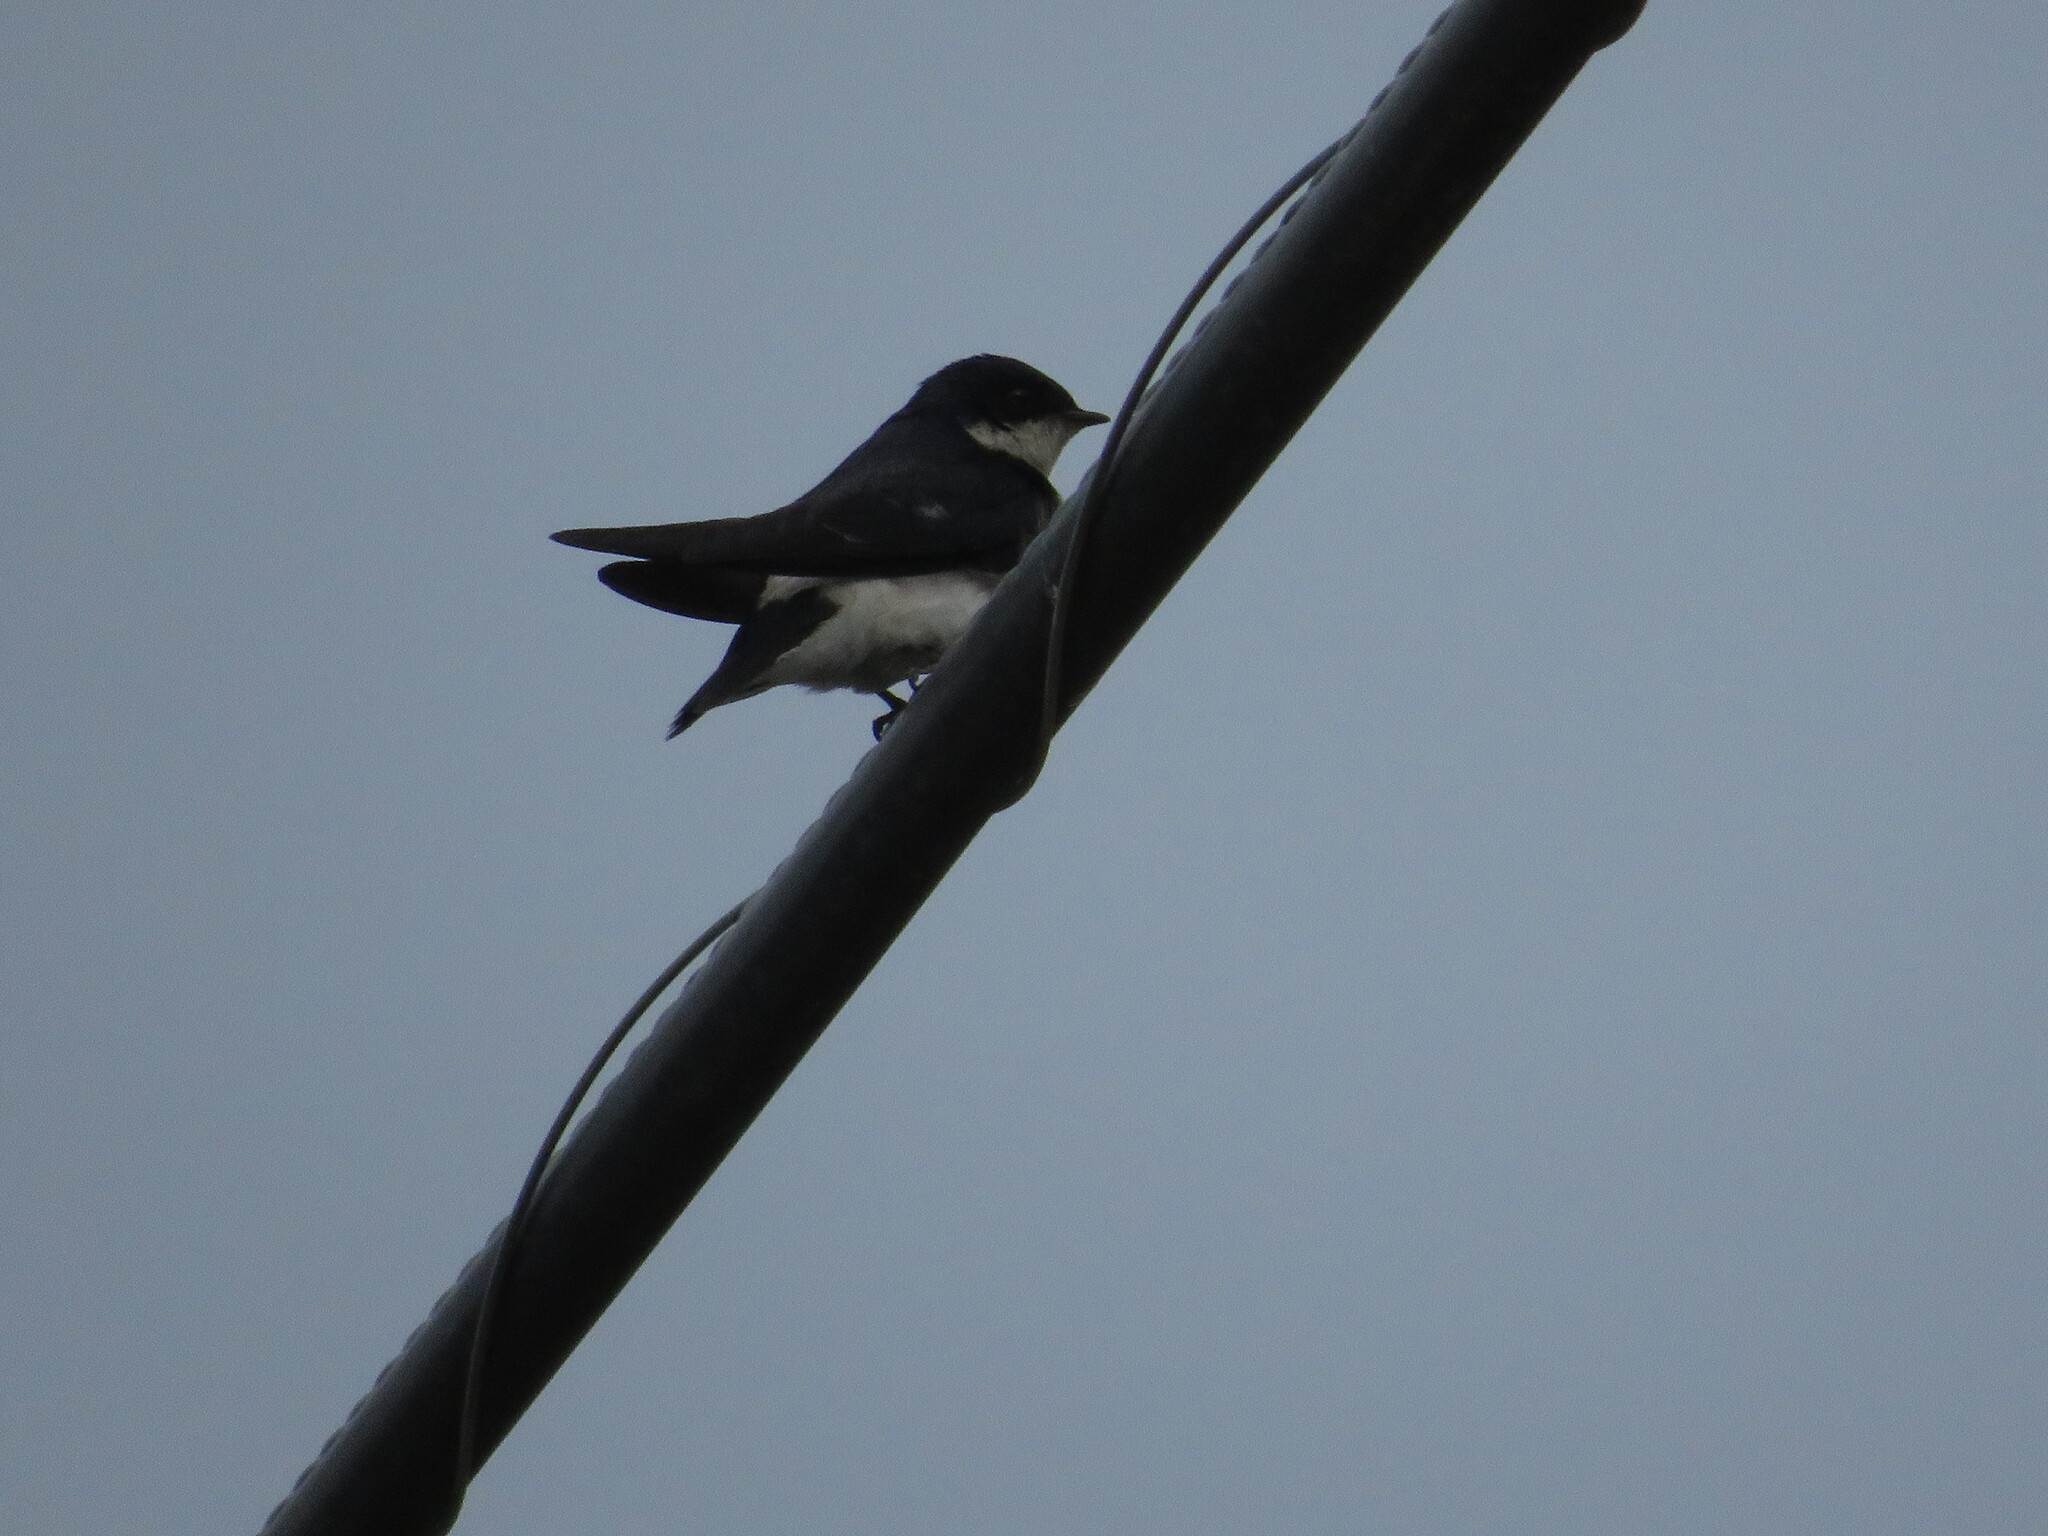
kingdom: Animalia
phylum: Chordata
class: Aves
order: Passeriformes
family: Hirundinidae
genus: Tachycineta
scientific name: Tachycineta leucopyga
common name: Chilean swallow
